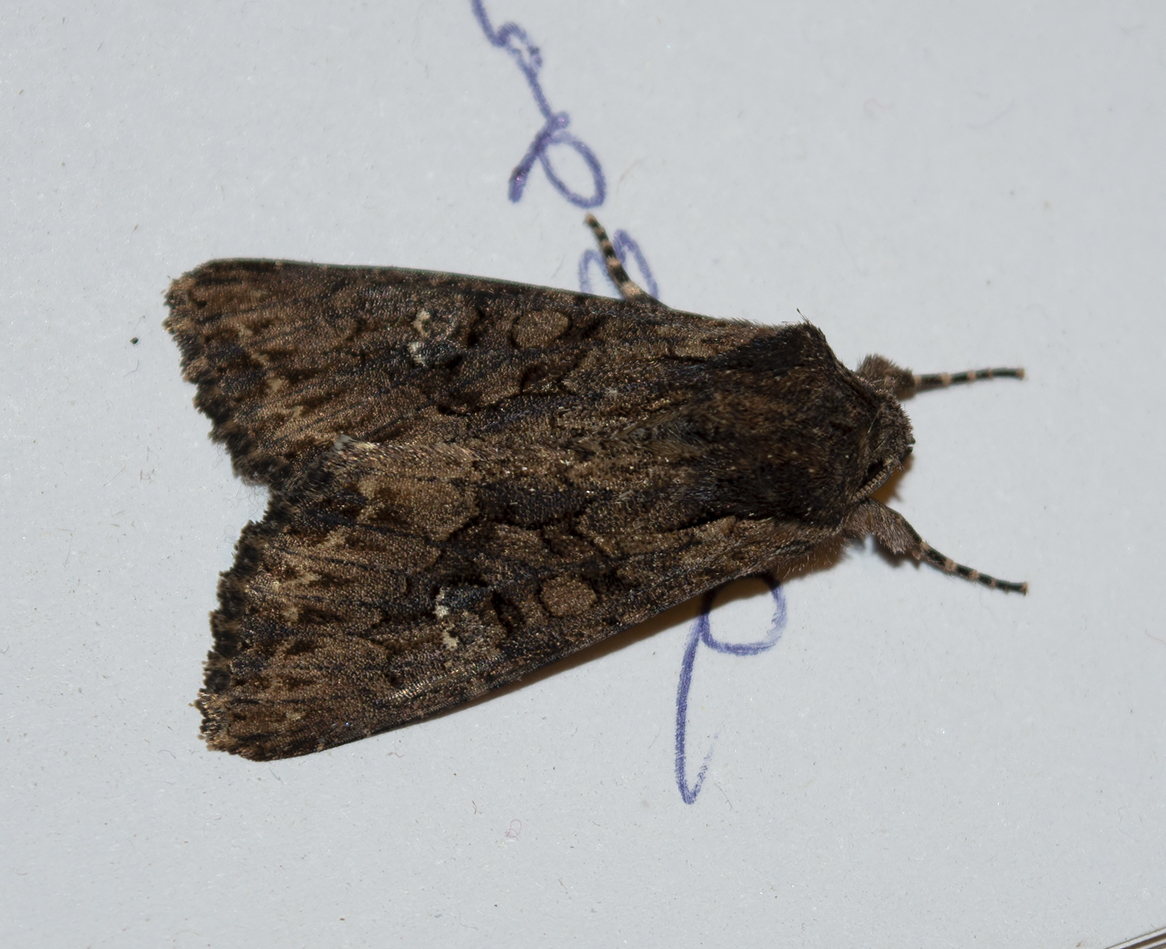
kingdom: Animalia
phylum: Arthropoda
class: Insecta
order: Lepidoptera
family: Noctuidae
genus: Mniotype
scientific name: Mniotype solieri
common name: Bedrule brocade
